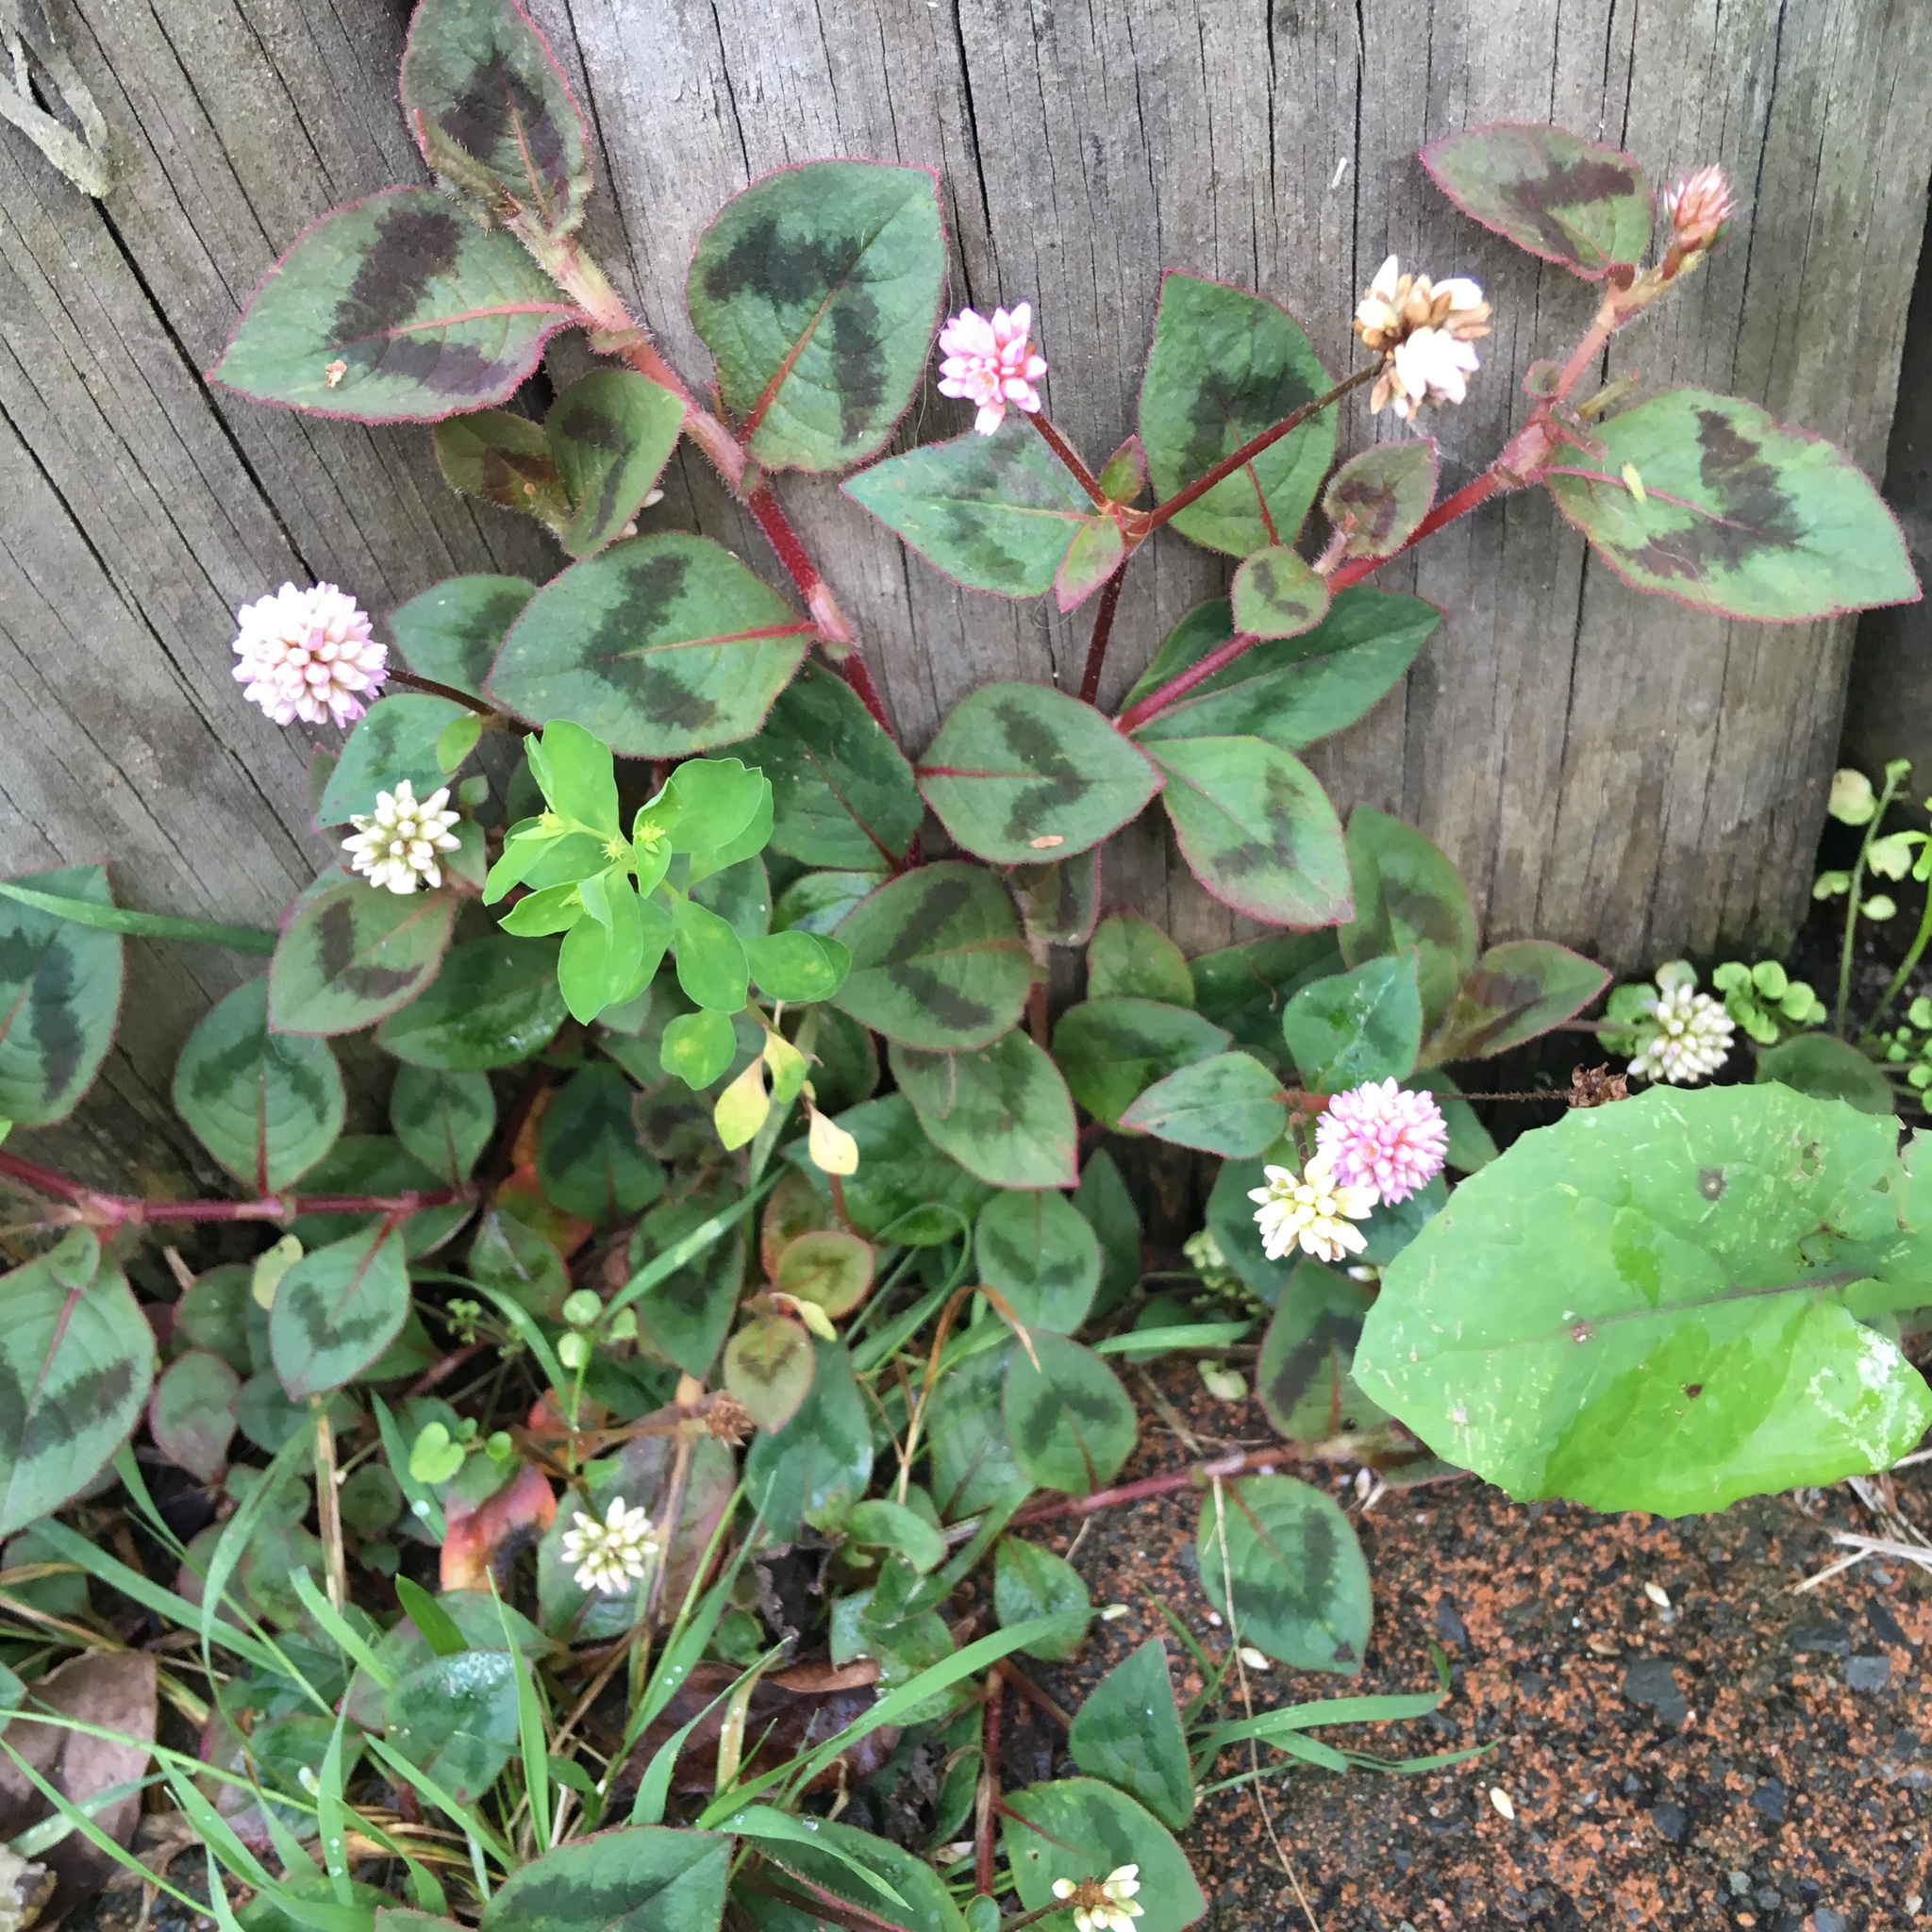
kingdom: Plantae
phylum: Tracheophyta
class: Magnoliopsida
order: Caryophyllales
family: Polygonaceae
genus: Persicaria
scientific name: Persicaria capitata
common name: Pinkhead smartweed
